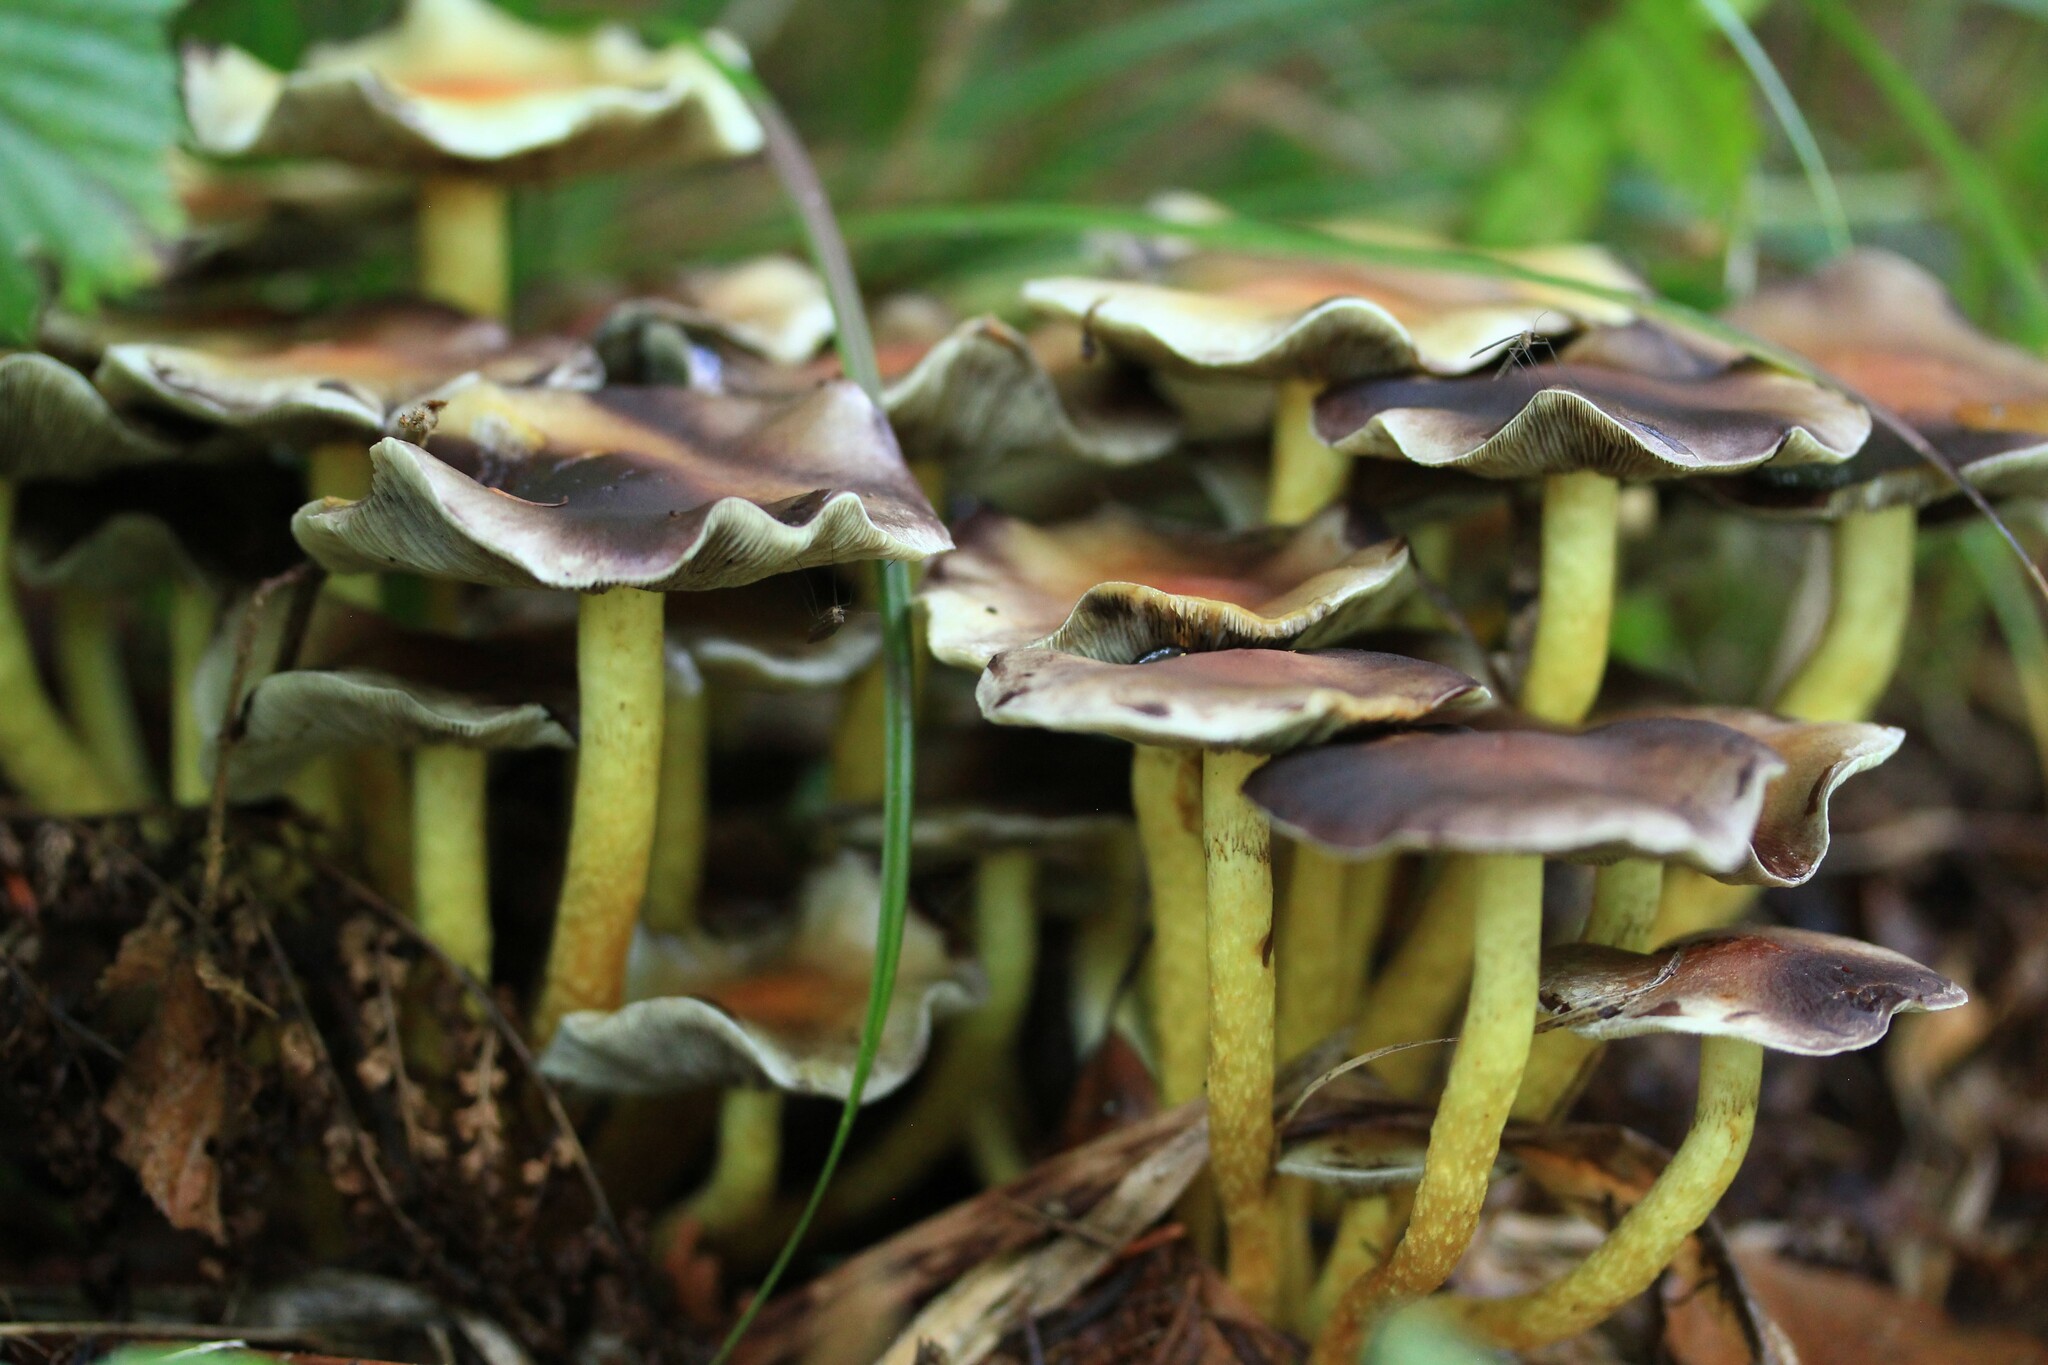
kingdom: Fungi
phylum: Basidiomycota
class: Agaricomycetes
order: Agaricales
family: Strophariaceae
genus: Hypholoma
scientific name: Hypholoma fasciculare
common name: Sulphur tuft
